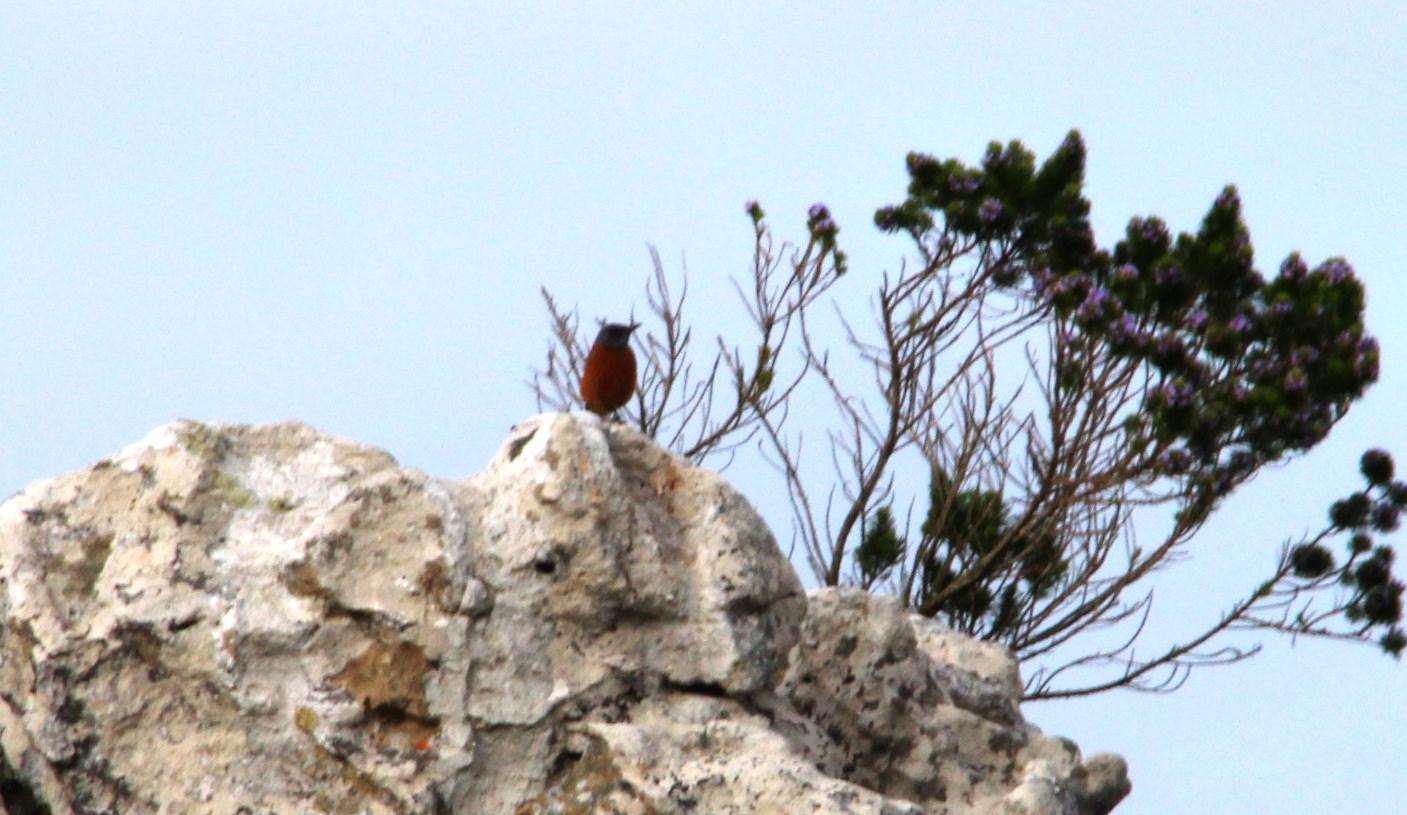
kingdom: Animalia
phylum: Chordata
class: Aves
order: Passeriformes
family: Muscicapidae
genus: Monticola
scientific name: Monticola rupestris
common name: Cape rock thrush
